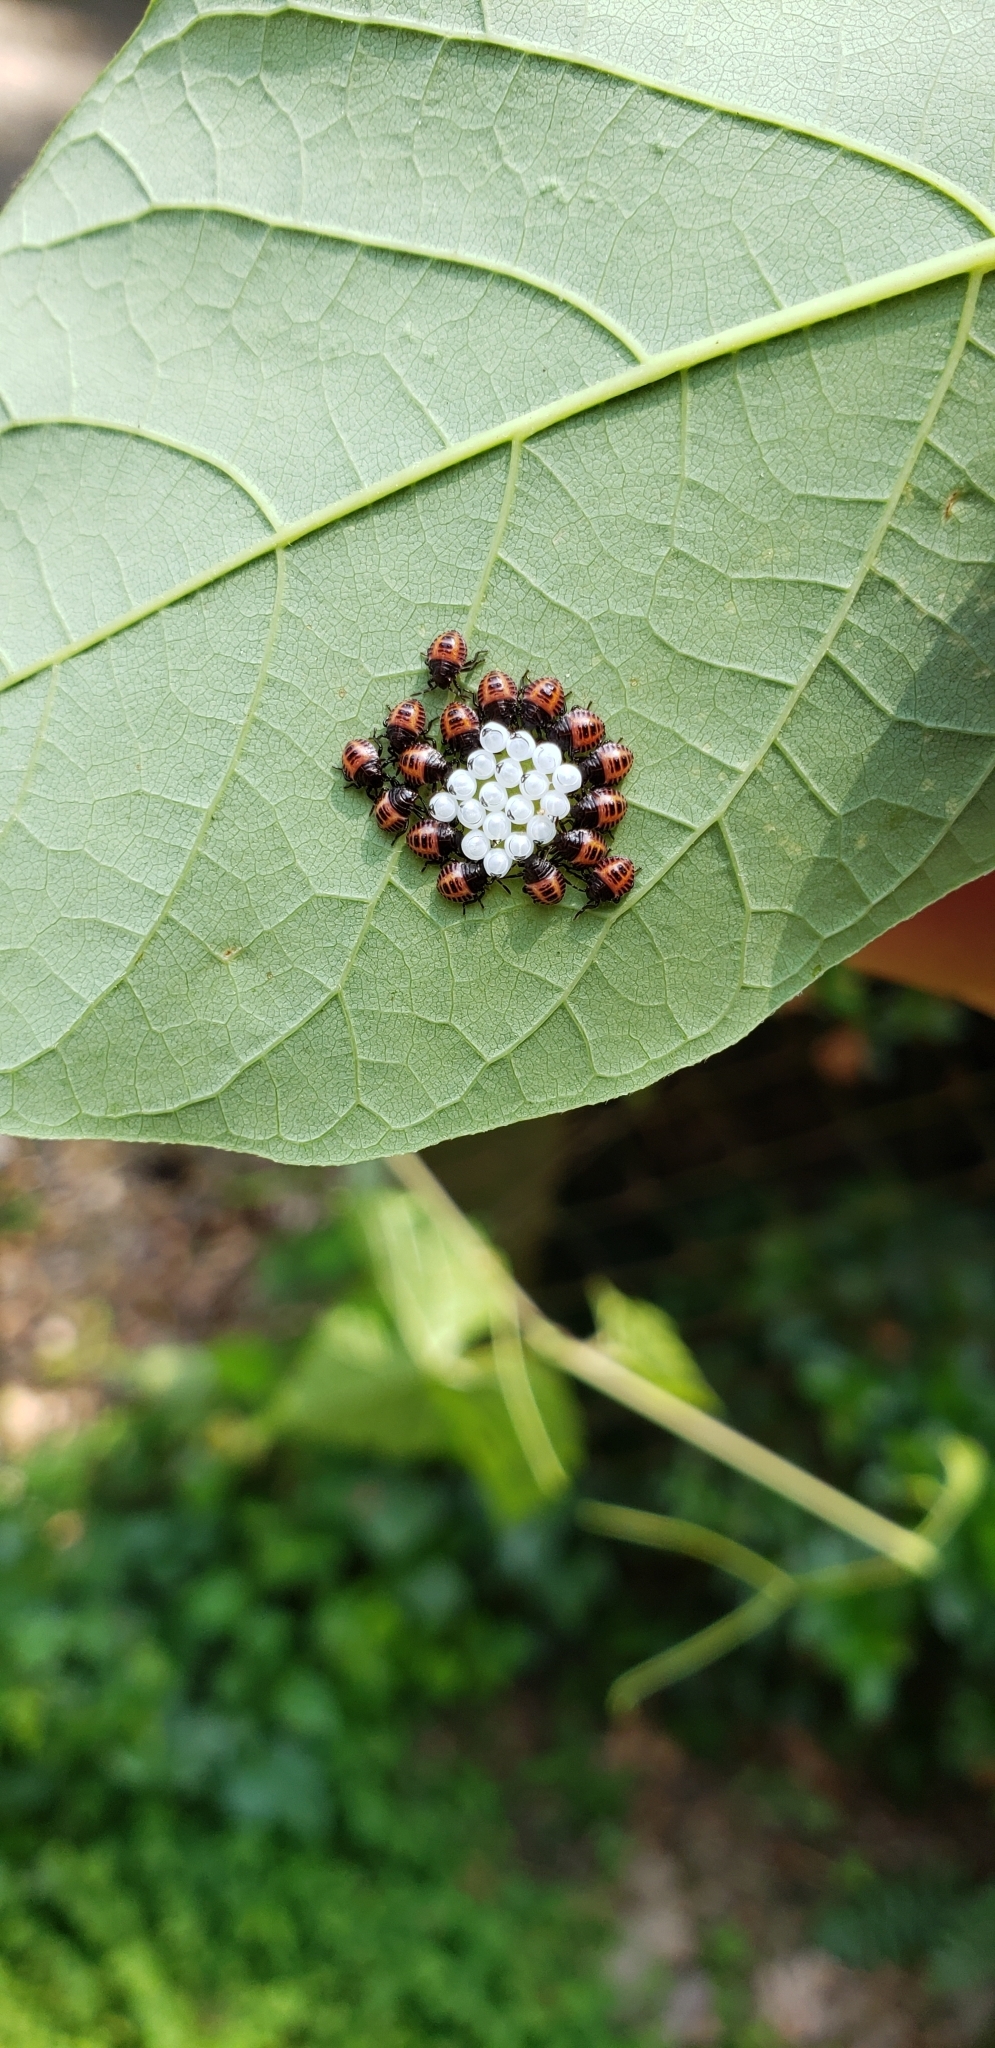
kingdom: Animalia
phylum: Arthropoda
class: Insecta
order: Hemiptera
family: Pentatomidae
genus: Halyomorpha
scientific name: Halyomorpha halys
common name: Brown marmorated stink bug
